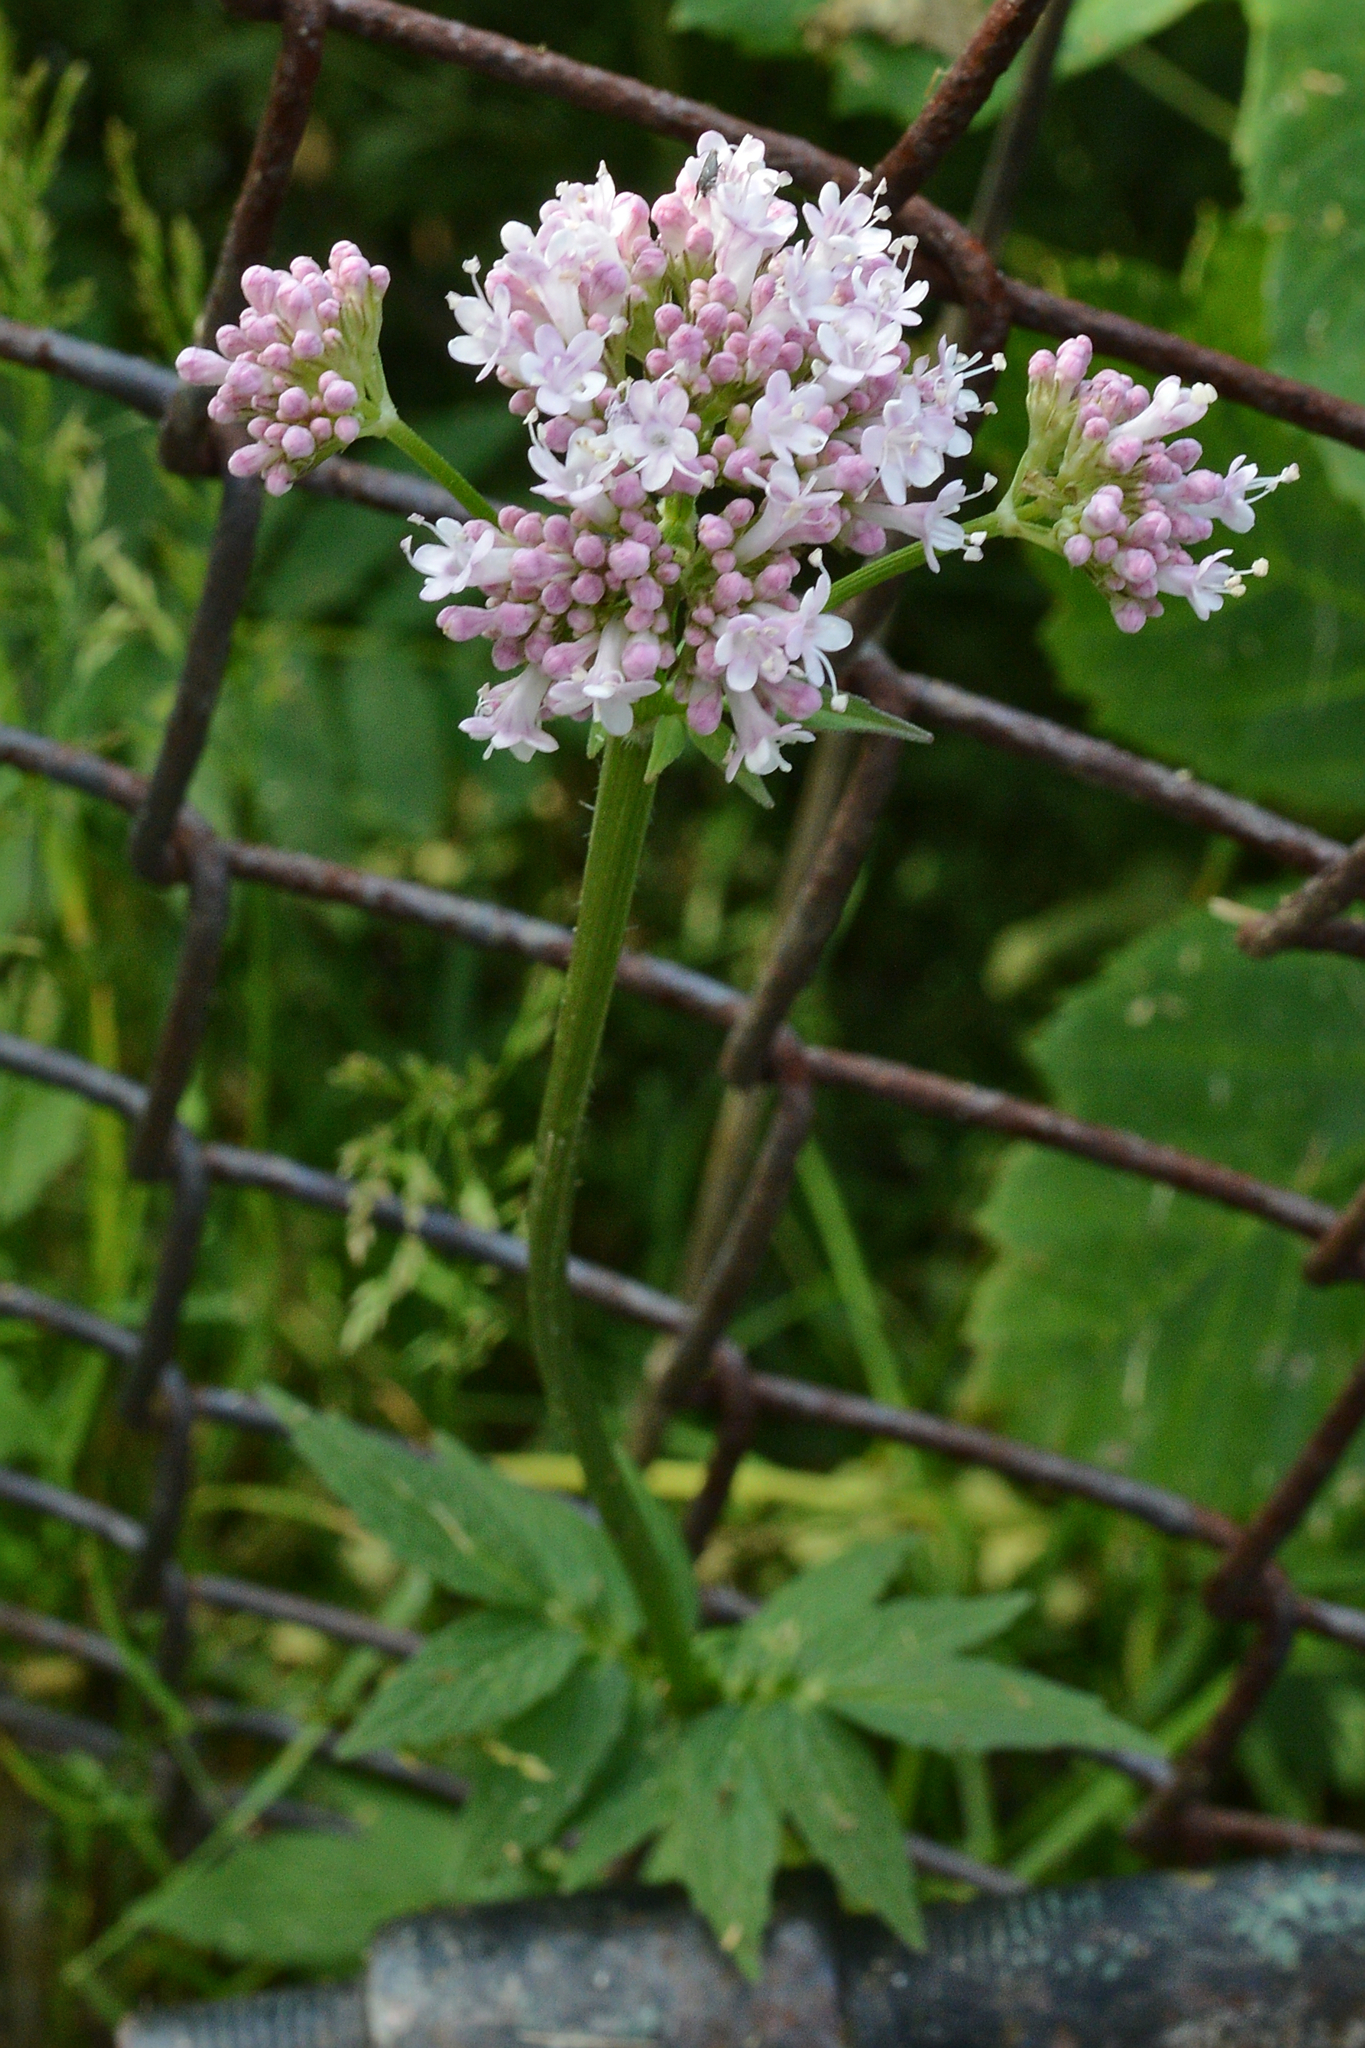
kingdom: Plantae
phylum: Tracheophyta
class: Magnoliopsida
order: Dipsacales
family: Caprifoliaceae
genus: Valeriana
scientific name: Valeriana sambucifolia
